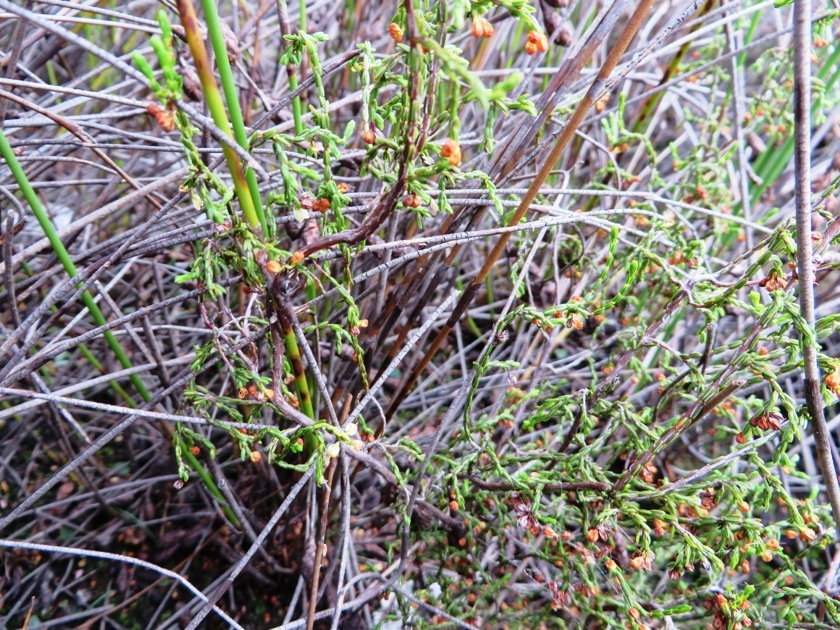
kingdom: Plantae
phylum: Tracheophyta
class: Magnoliopsida
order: Ericales
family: Ericaceae
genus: Erica
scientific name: Erica multiflexuosa
